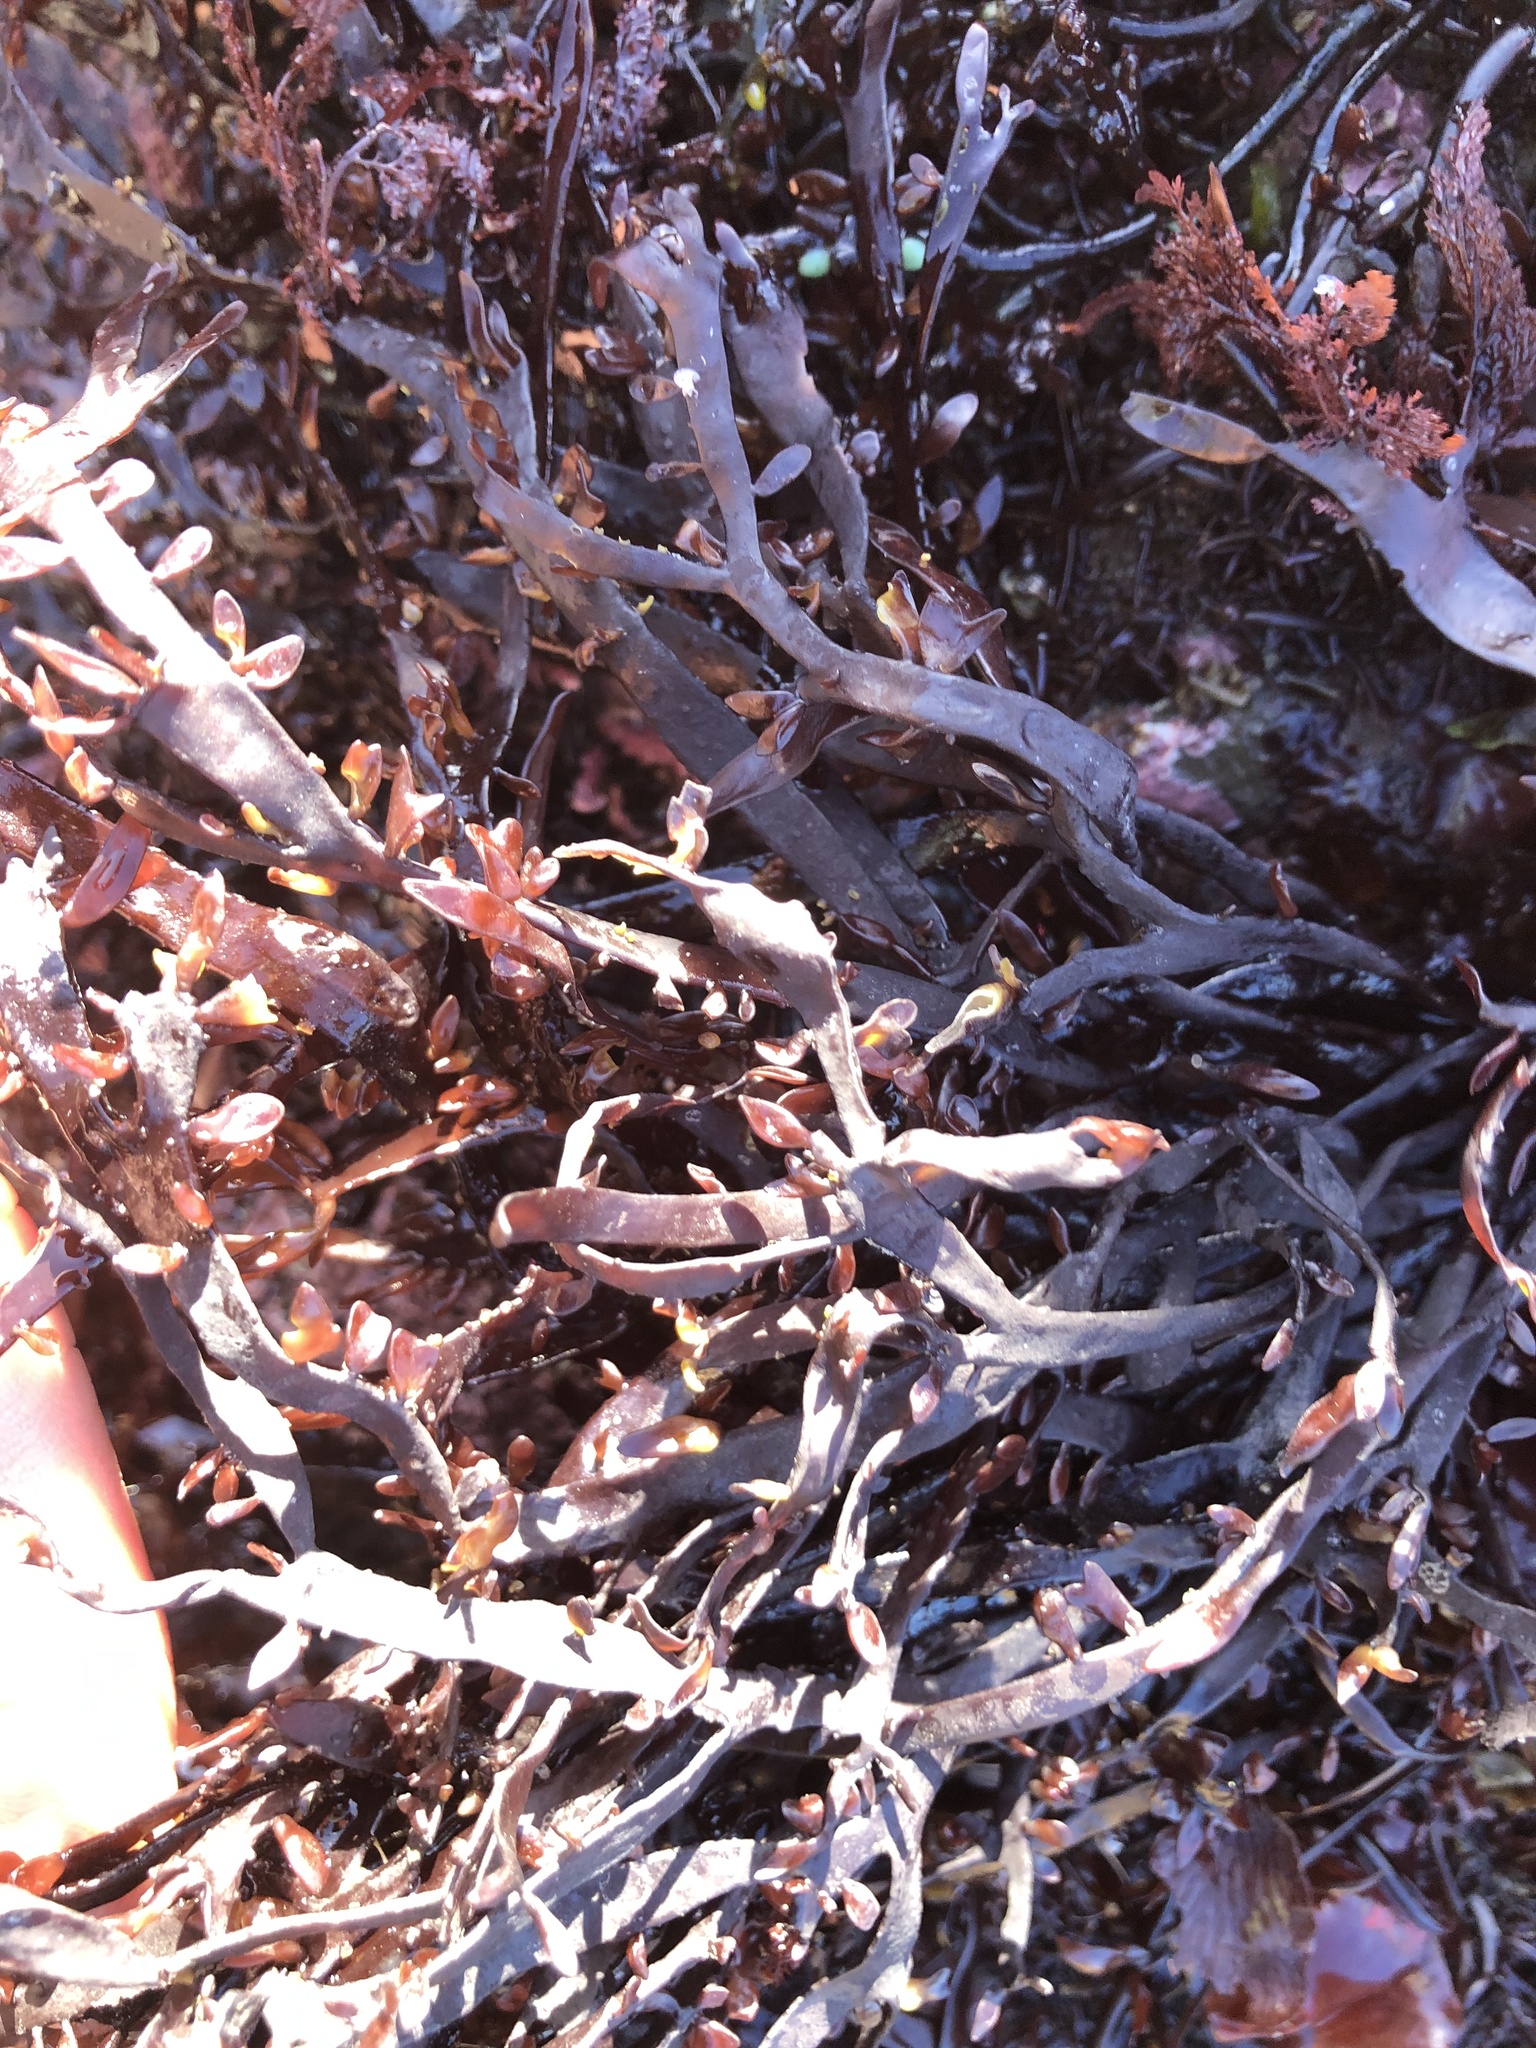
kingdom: Plantae
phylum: Rhodophyta
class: Florideophyceae
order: Halymeniales
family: Halymeniaceae
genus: Grateloupia
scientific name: Grateloupia Prionitis lanceolata
